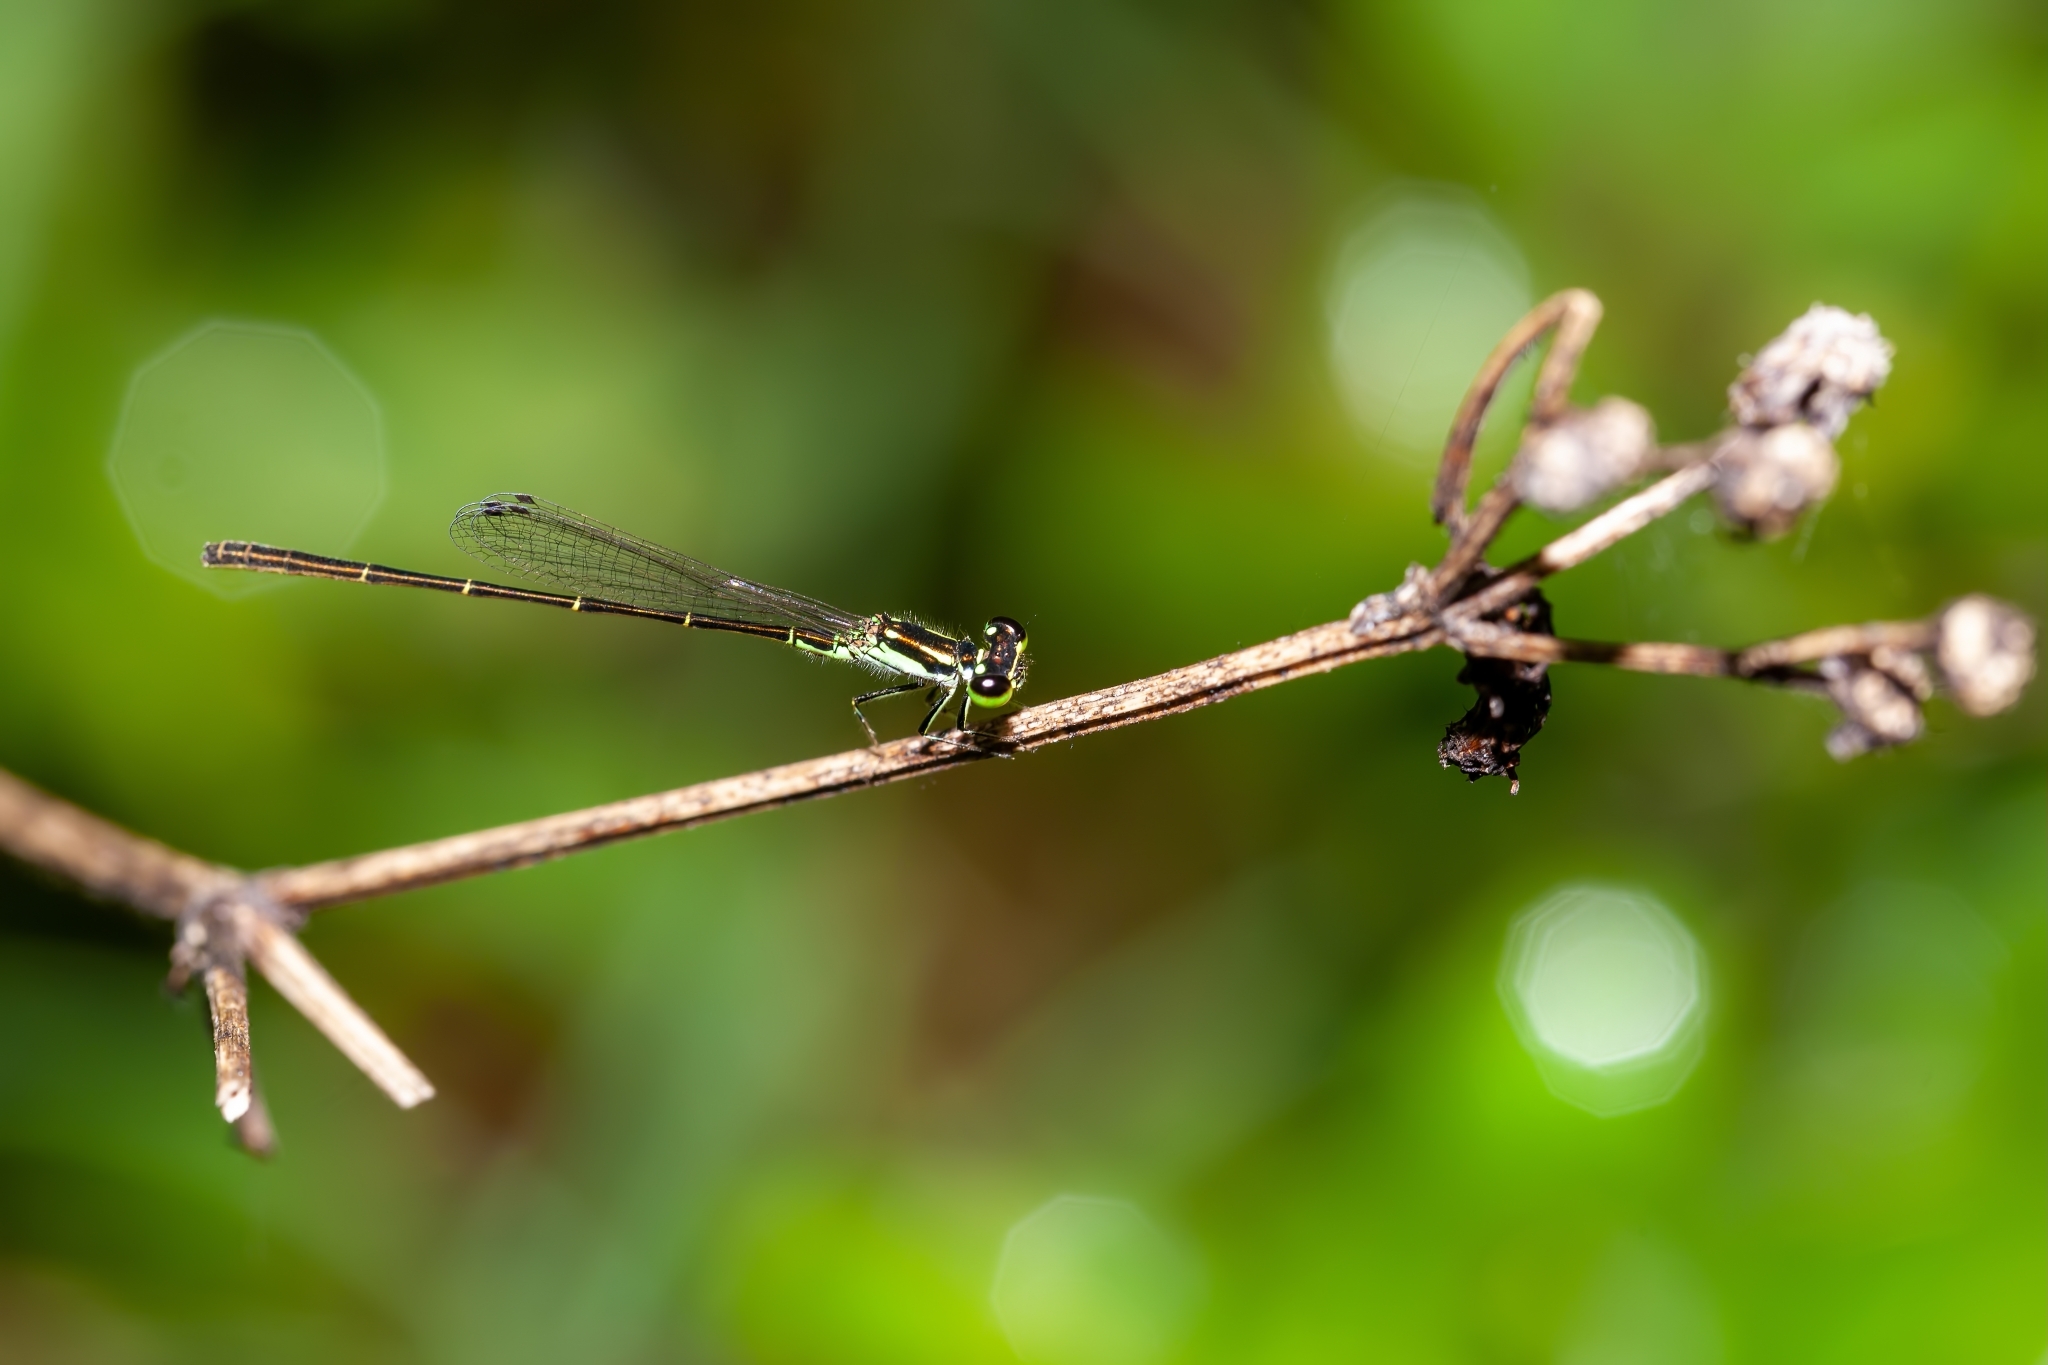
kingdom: Animalia
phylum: Arthropoda
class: Insecta
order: Odonata
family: Coenagrionidae
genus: Ischnura
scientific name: Ischnura posita
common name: Fragile forktail
